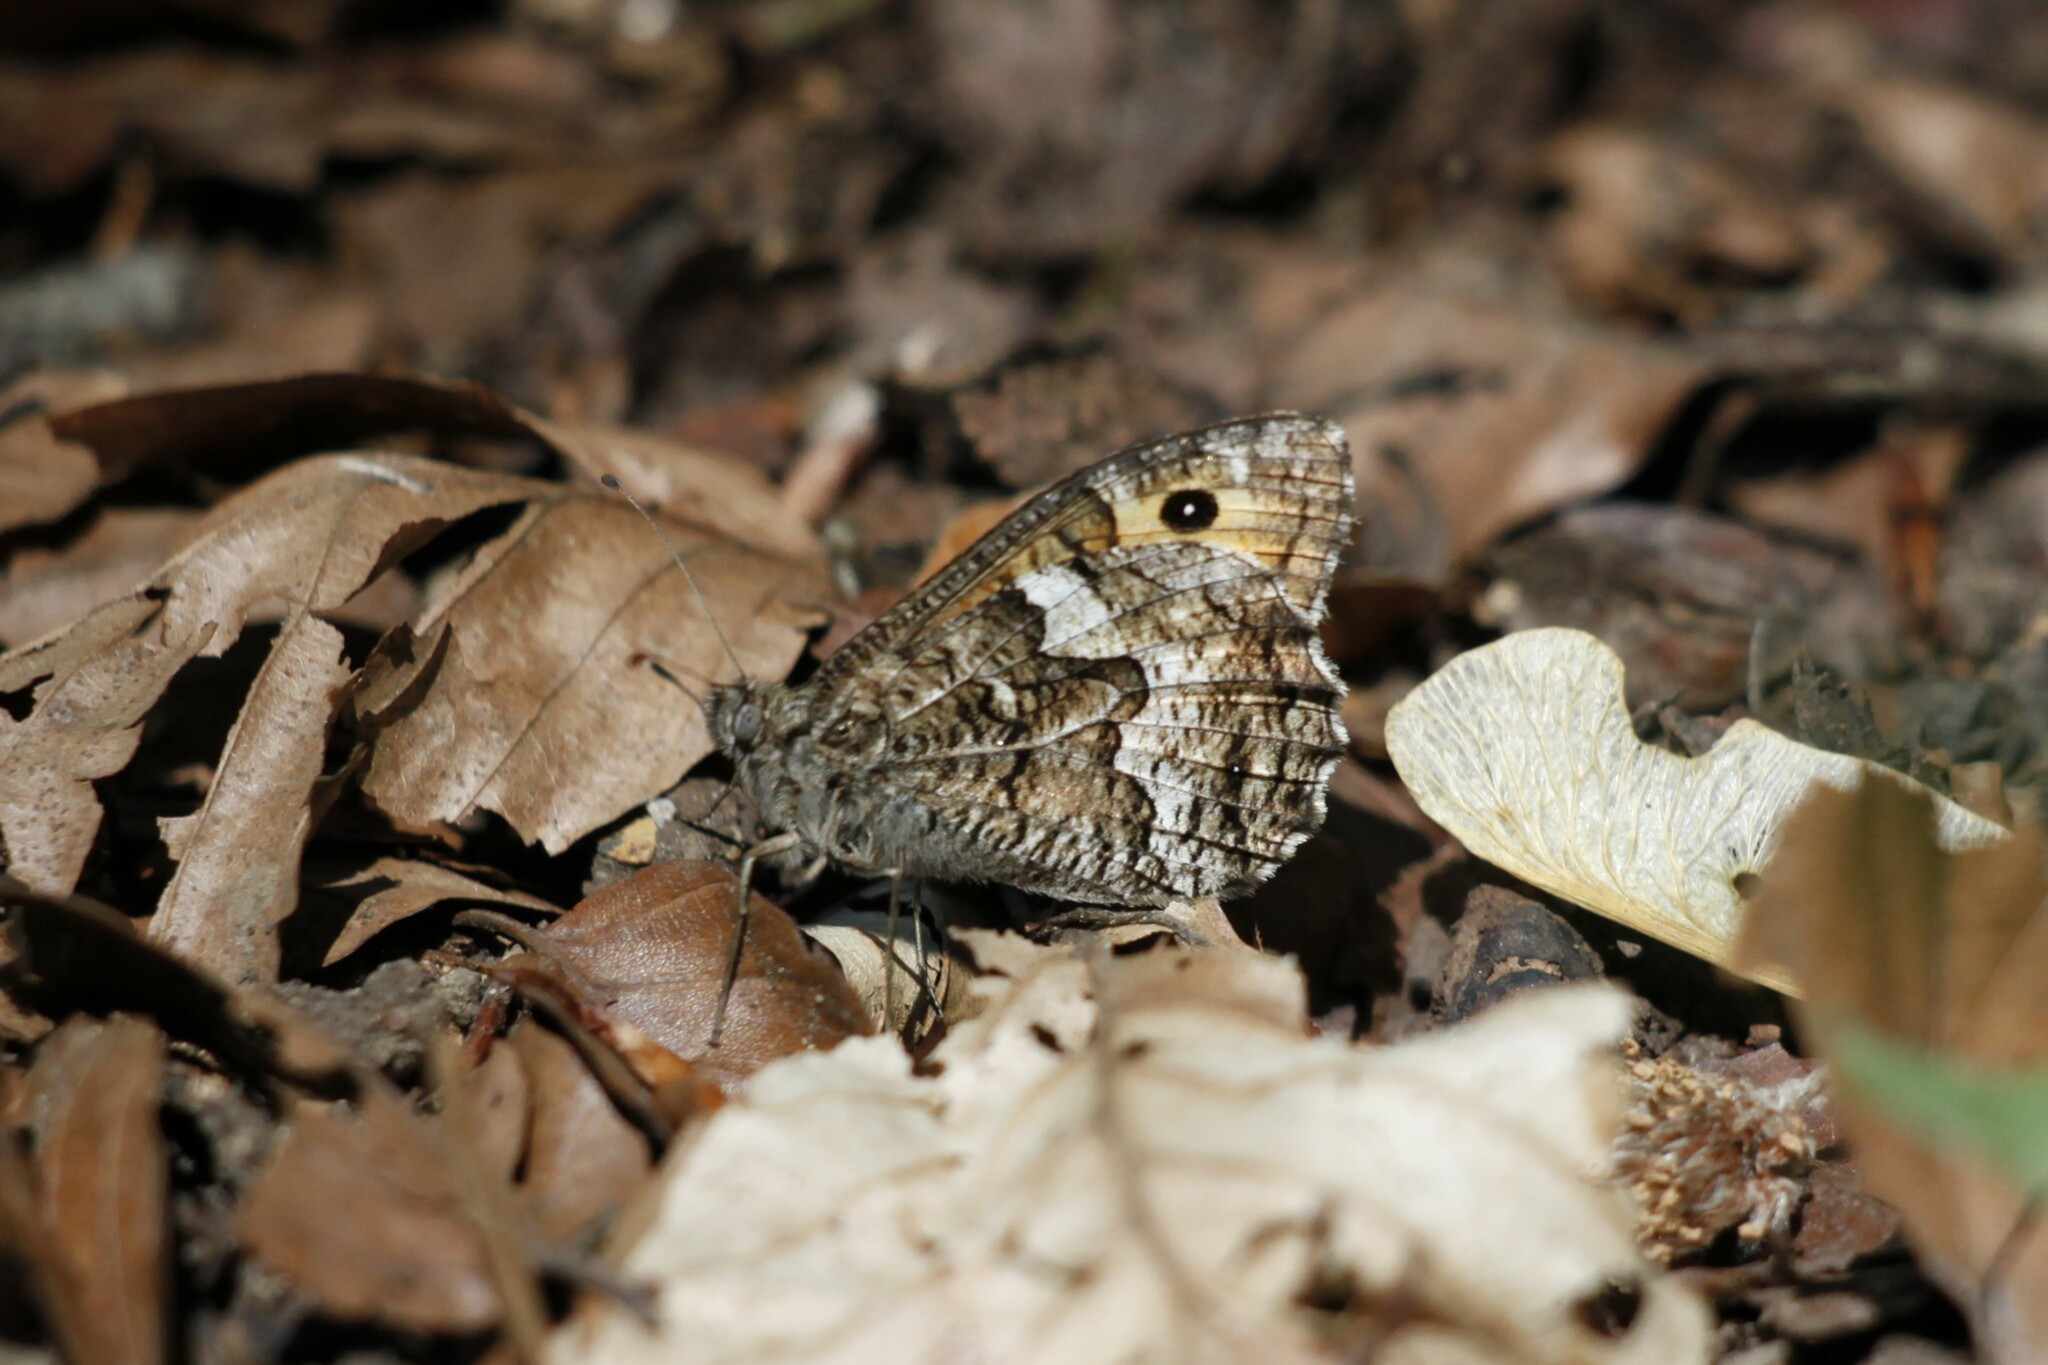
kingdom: Animalia
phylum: Arthropoda
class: Insecta
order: Lepidoptera
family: Nymphalidae
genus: Hipparchia
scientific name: Hipparchia semele
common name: Grayling
